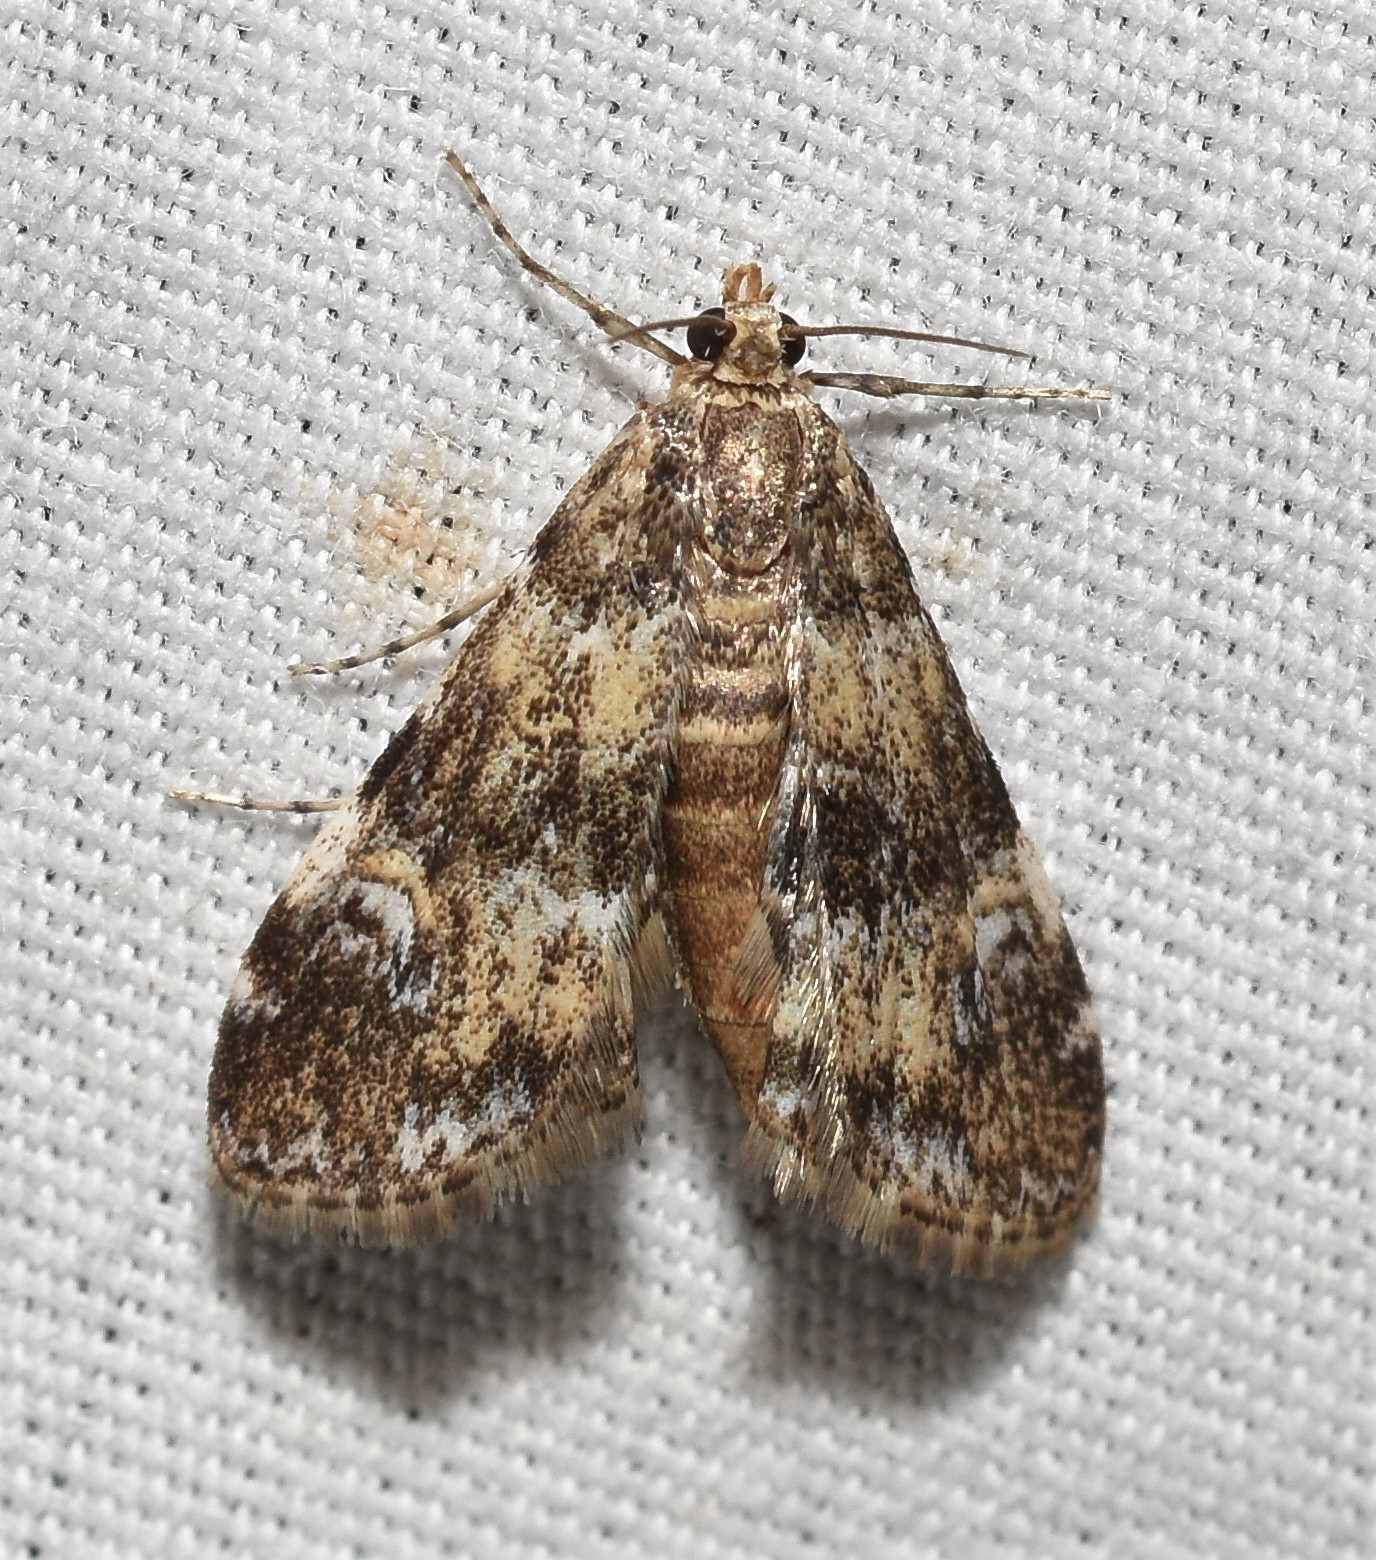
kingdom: Animalia
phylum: Arthropoda
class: Insecta
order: Lepidoptera
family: Crambidae
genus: Elophila
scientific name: Elophila obliteralis
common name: Waterlily leafcutter moth
